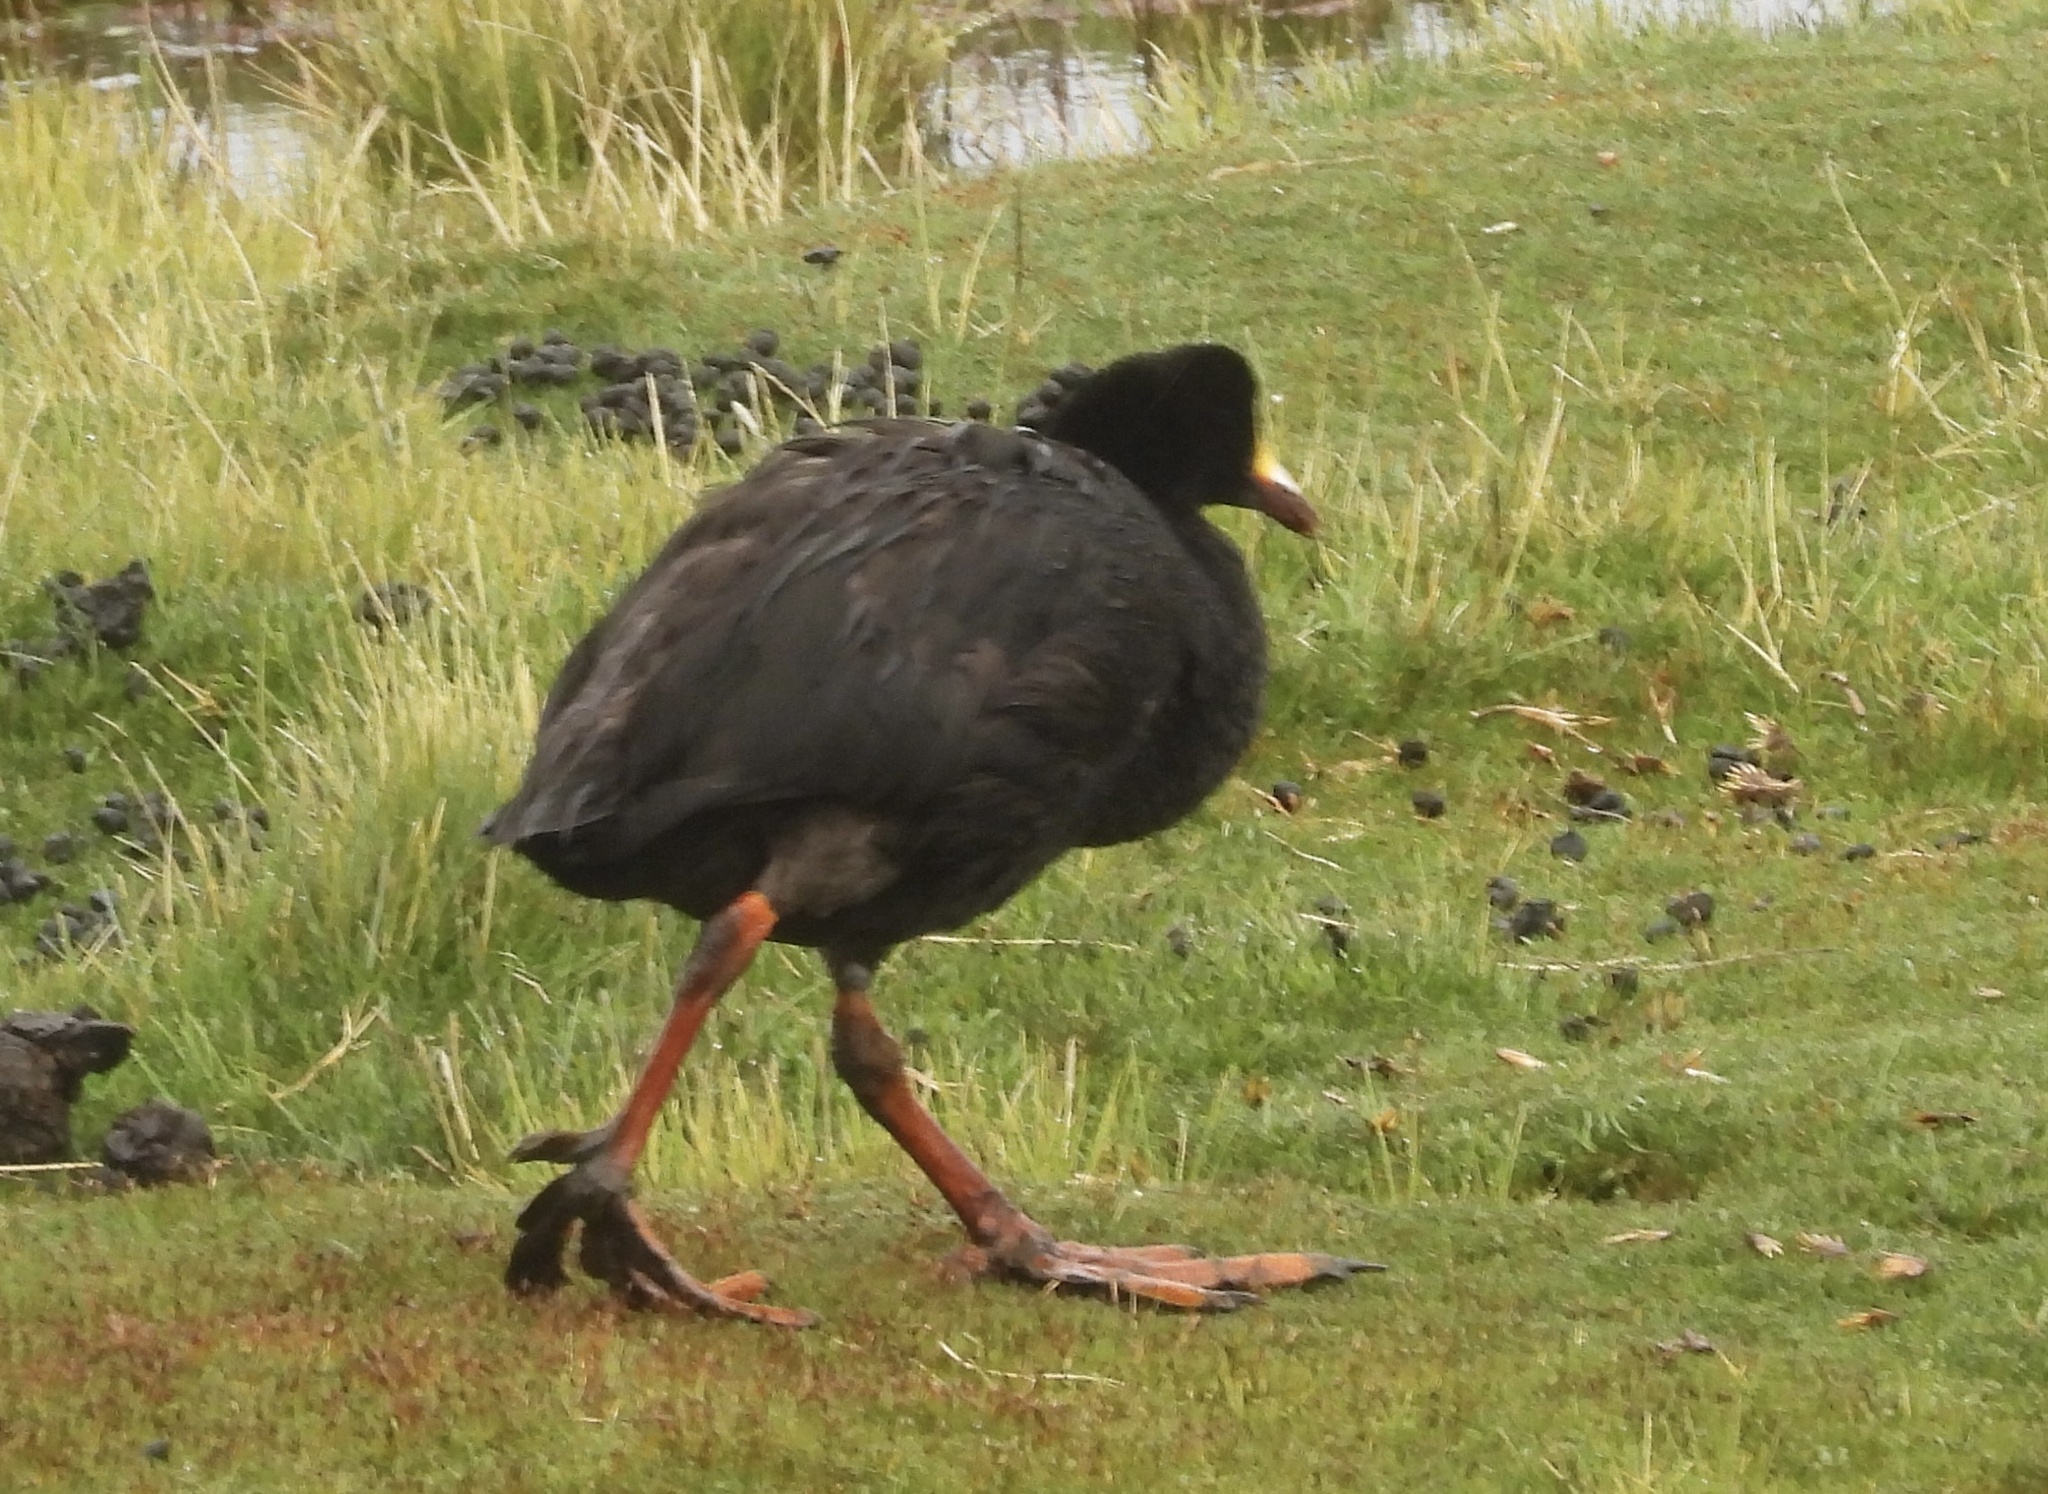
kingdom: Animalia
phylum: Chordata
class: Aves
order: Gruiformes
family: Rallidae
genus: Fulica
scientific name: Fulica gigantea
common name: Giant coot
